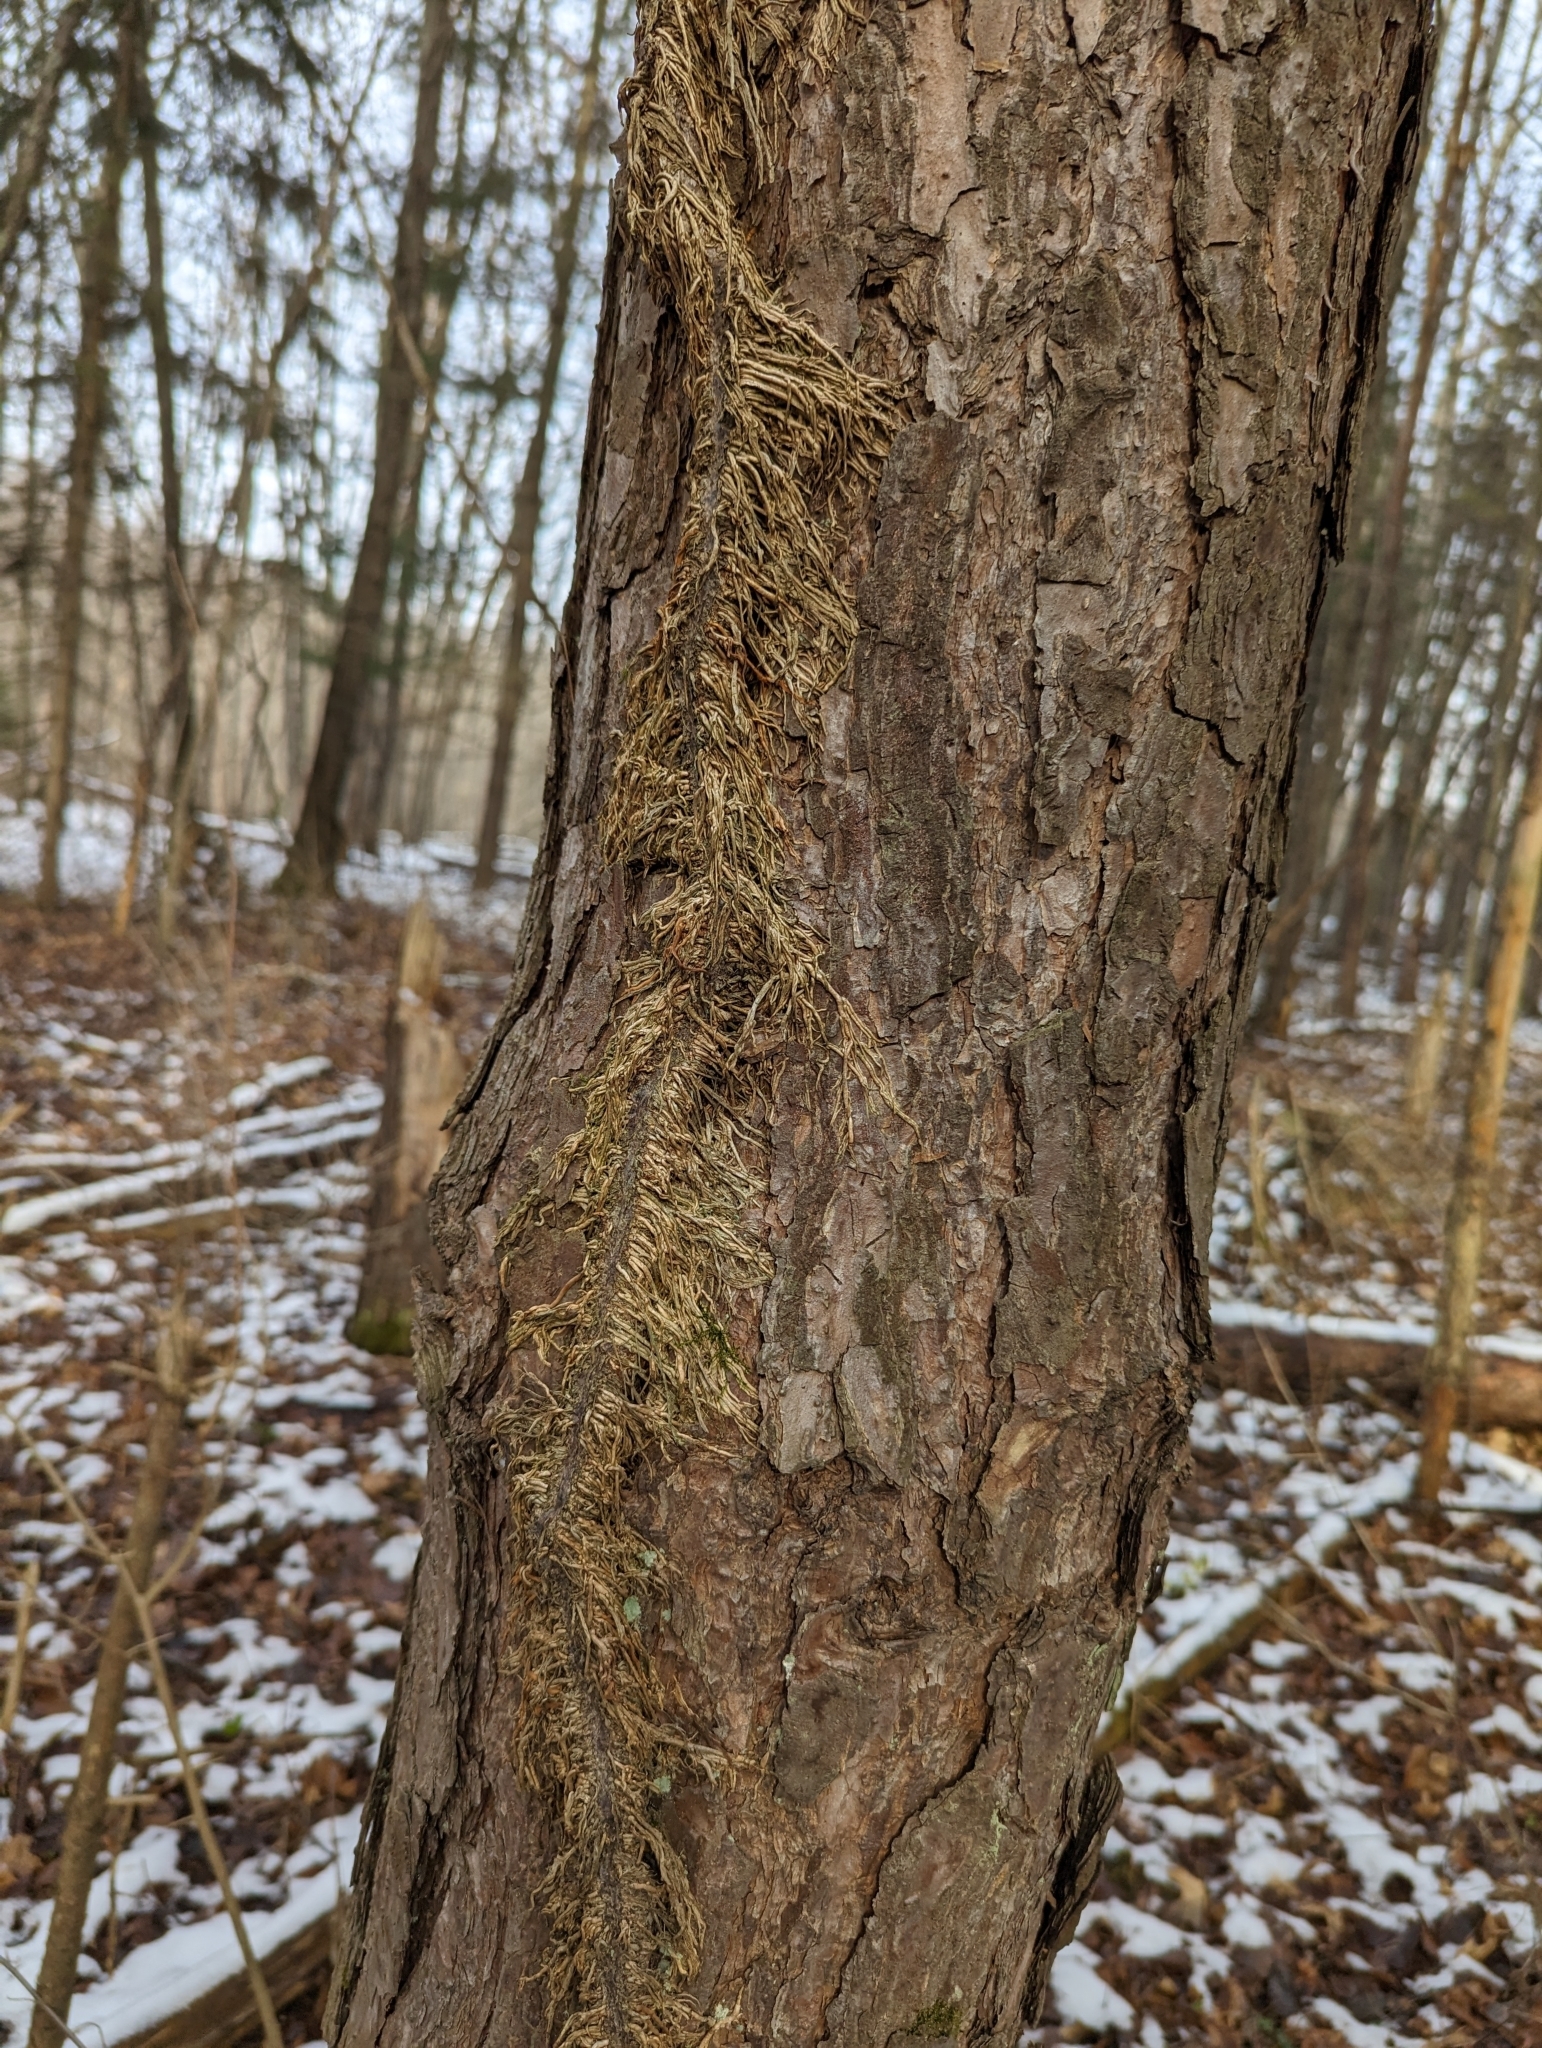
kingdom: Plantae
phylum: Tracheophyta
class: Magnoliopsida
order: Sapindales
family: Anacardiaceae
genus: Toxicodendron
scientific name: Toxicodendron radicans
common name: Poison ivy
